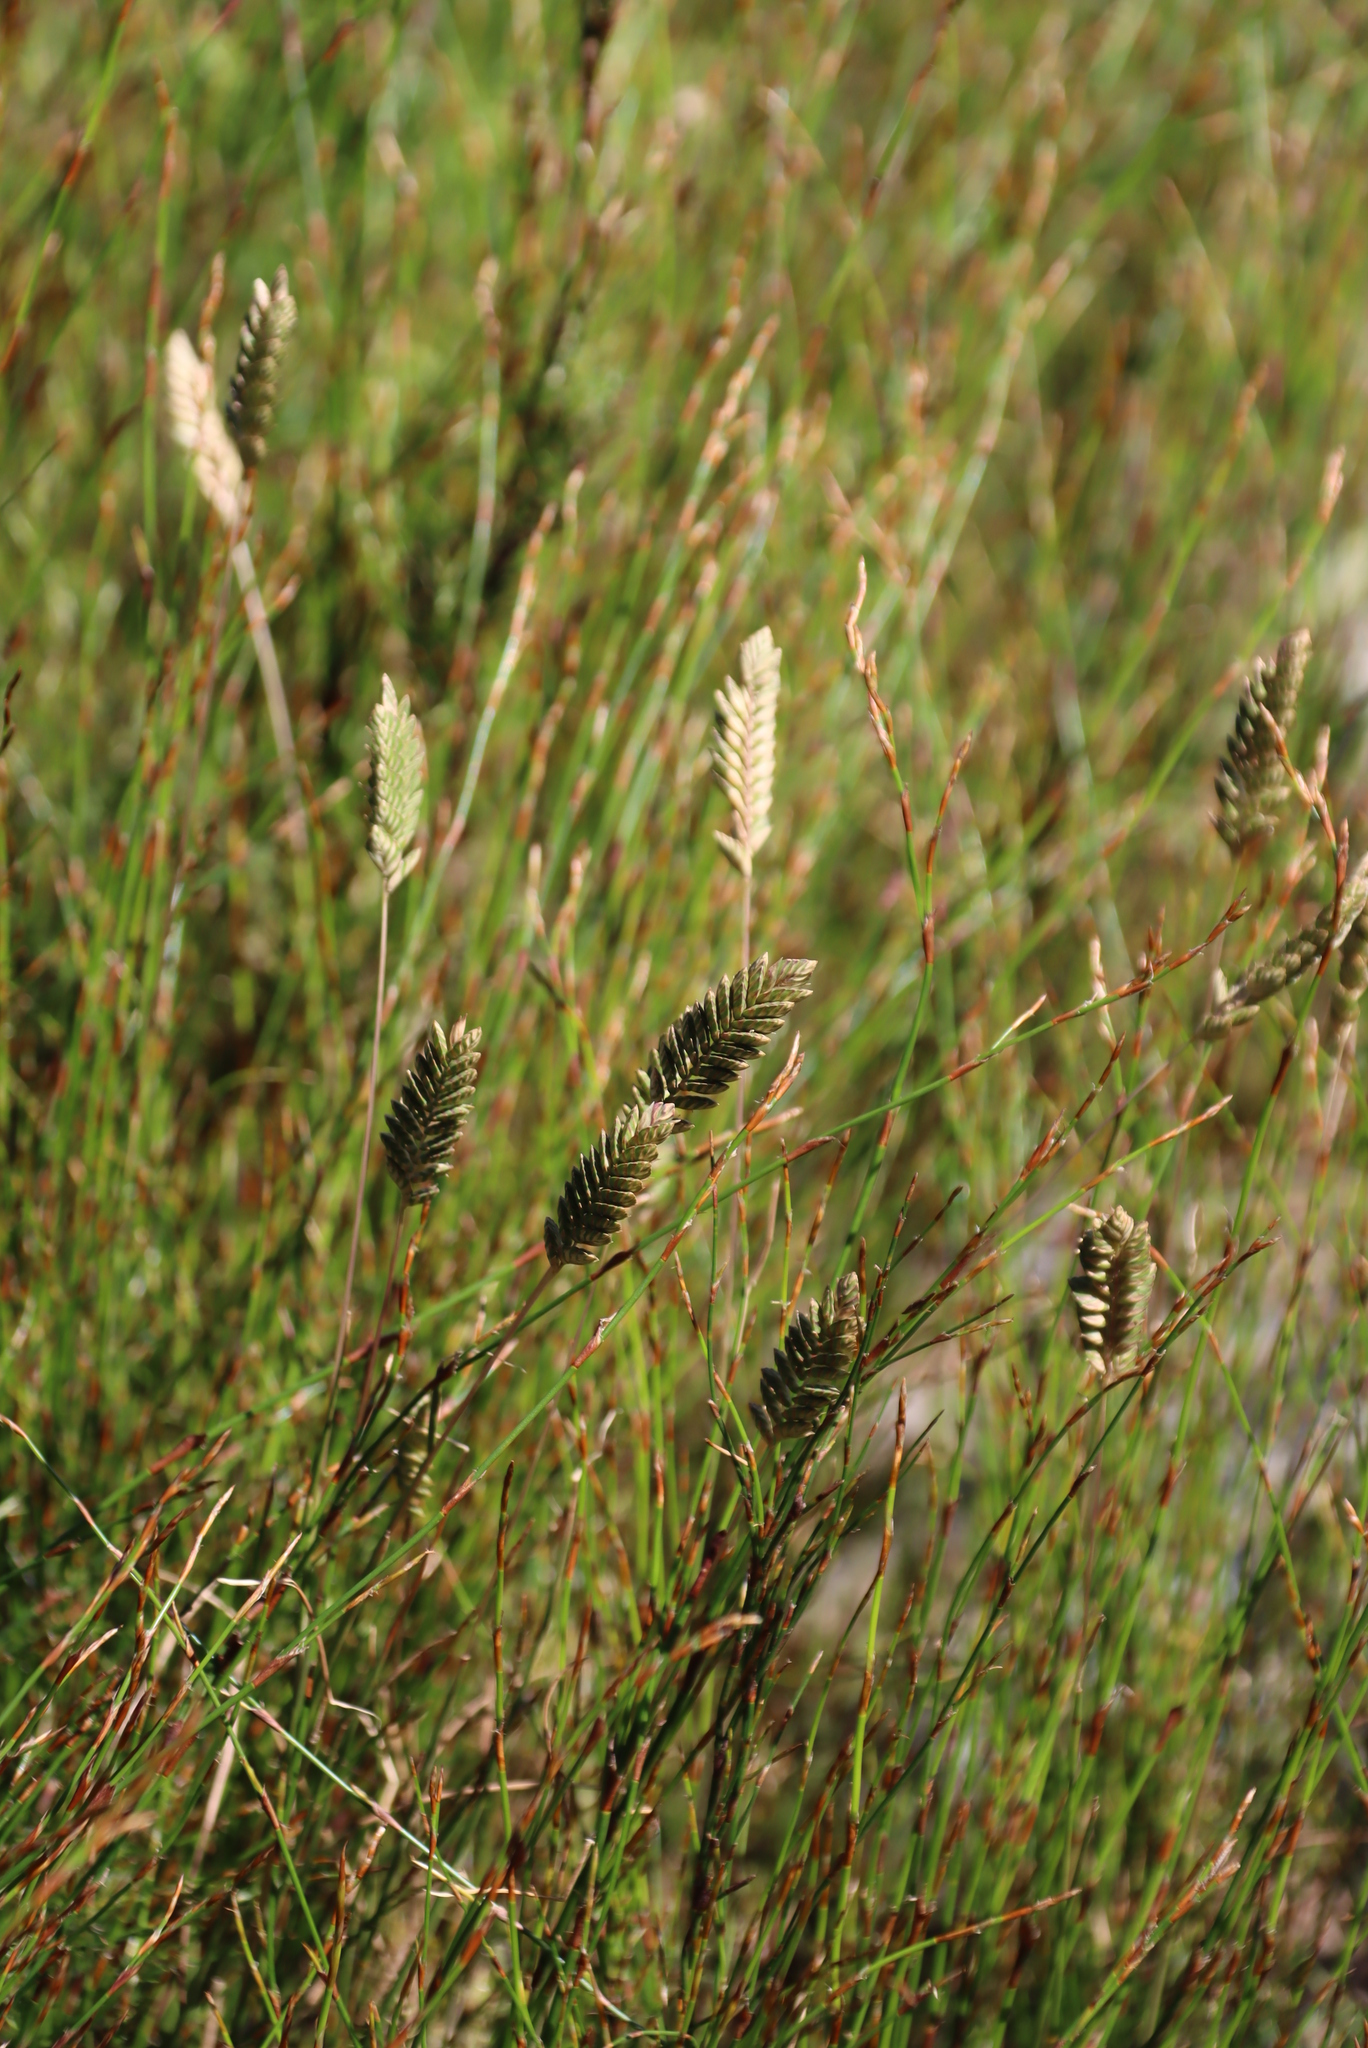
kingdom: Plantae
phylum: Tracheophyta
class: Liliopsida
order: Poales
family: Poaceae
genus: Tribolium
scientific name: Tribolium uniolae
